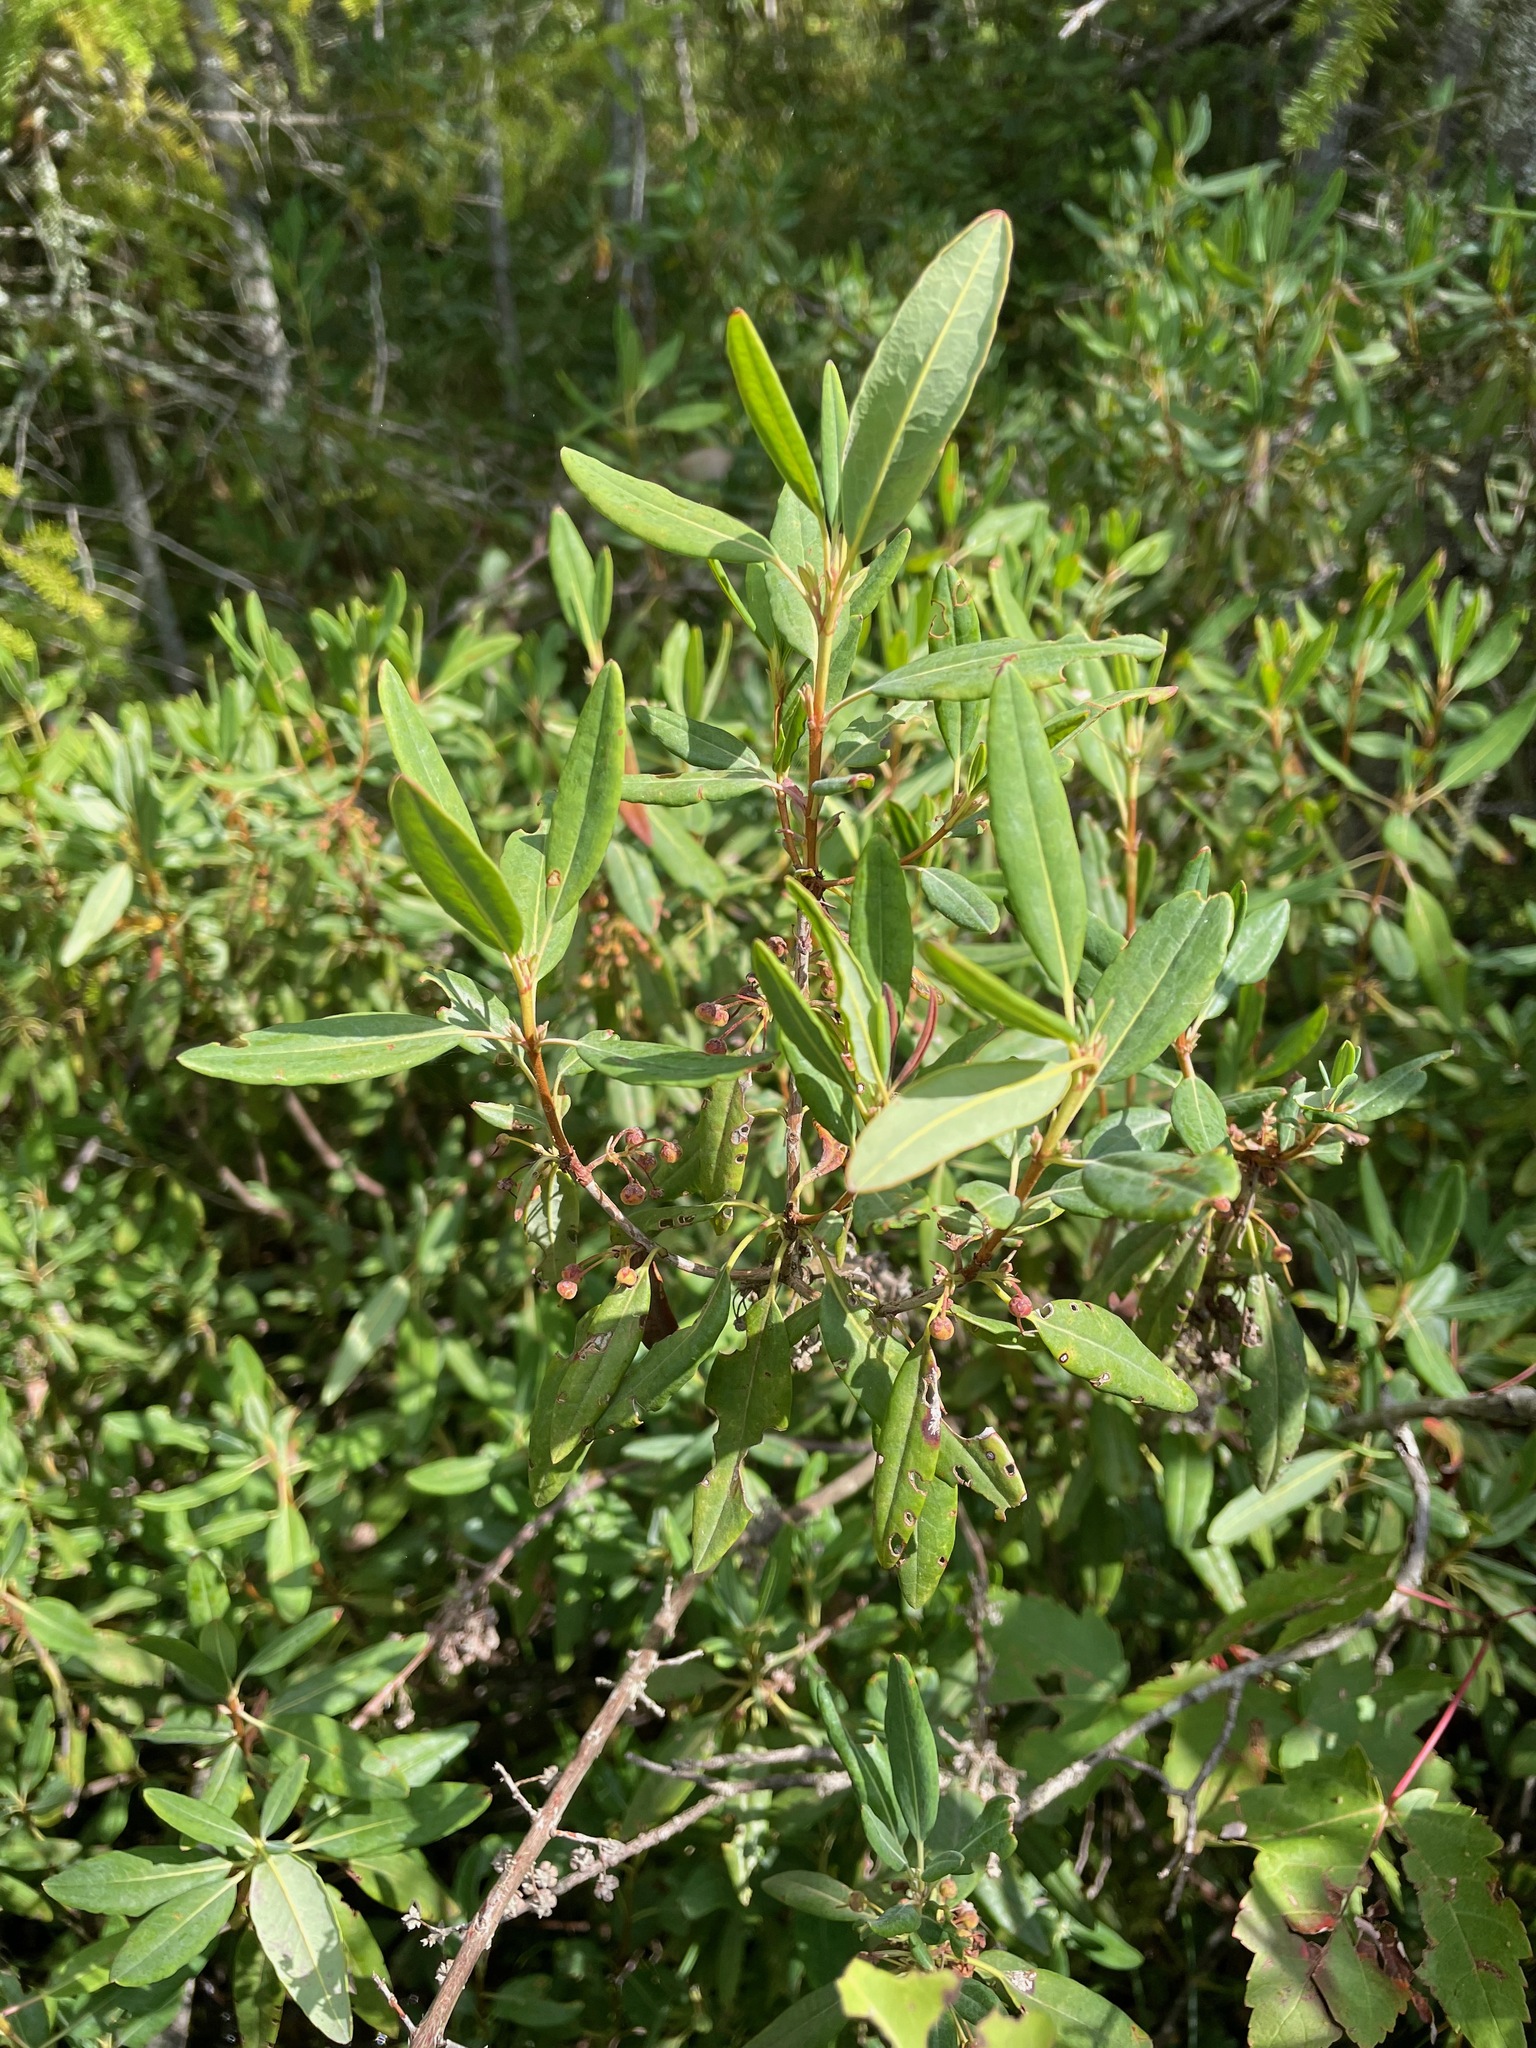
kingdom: Plantae
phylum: Tracheophyta
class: Magnoliopsida
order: Ericales
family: Ericaceae
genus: Kalmia
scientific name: Kalmia angustifolia
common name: Sheep-laurel
